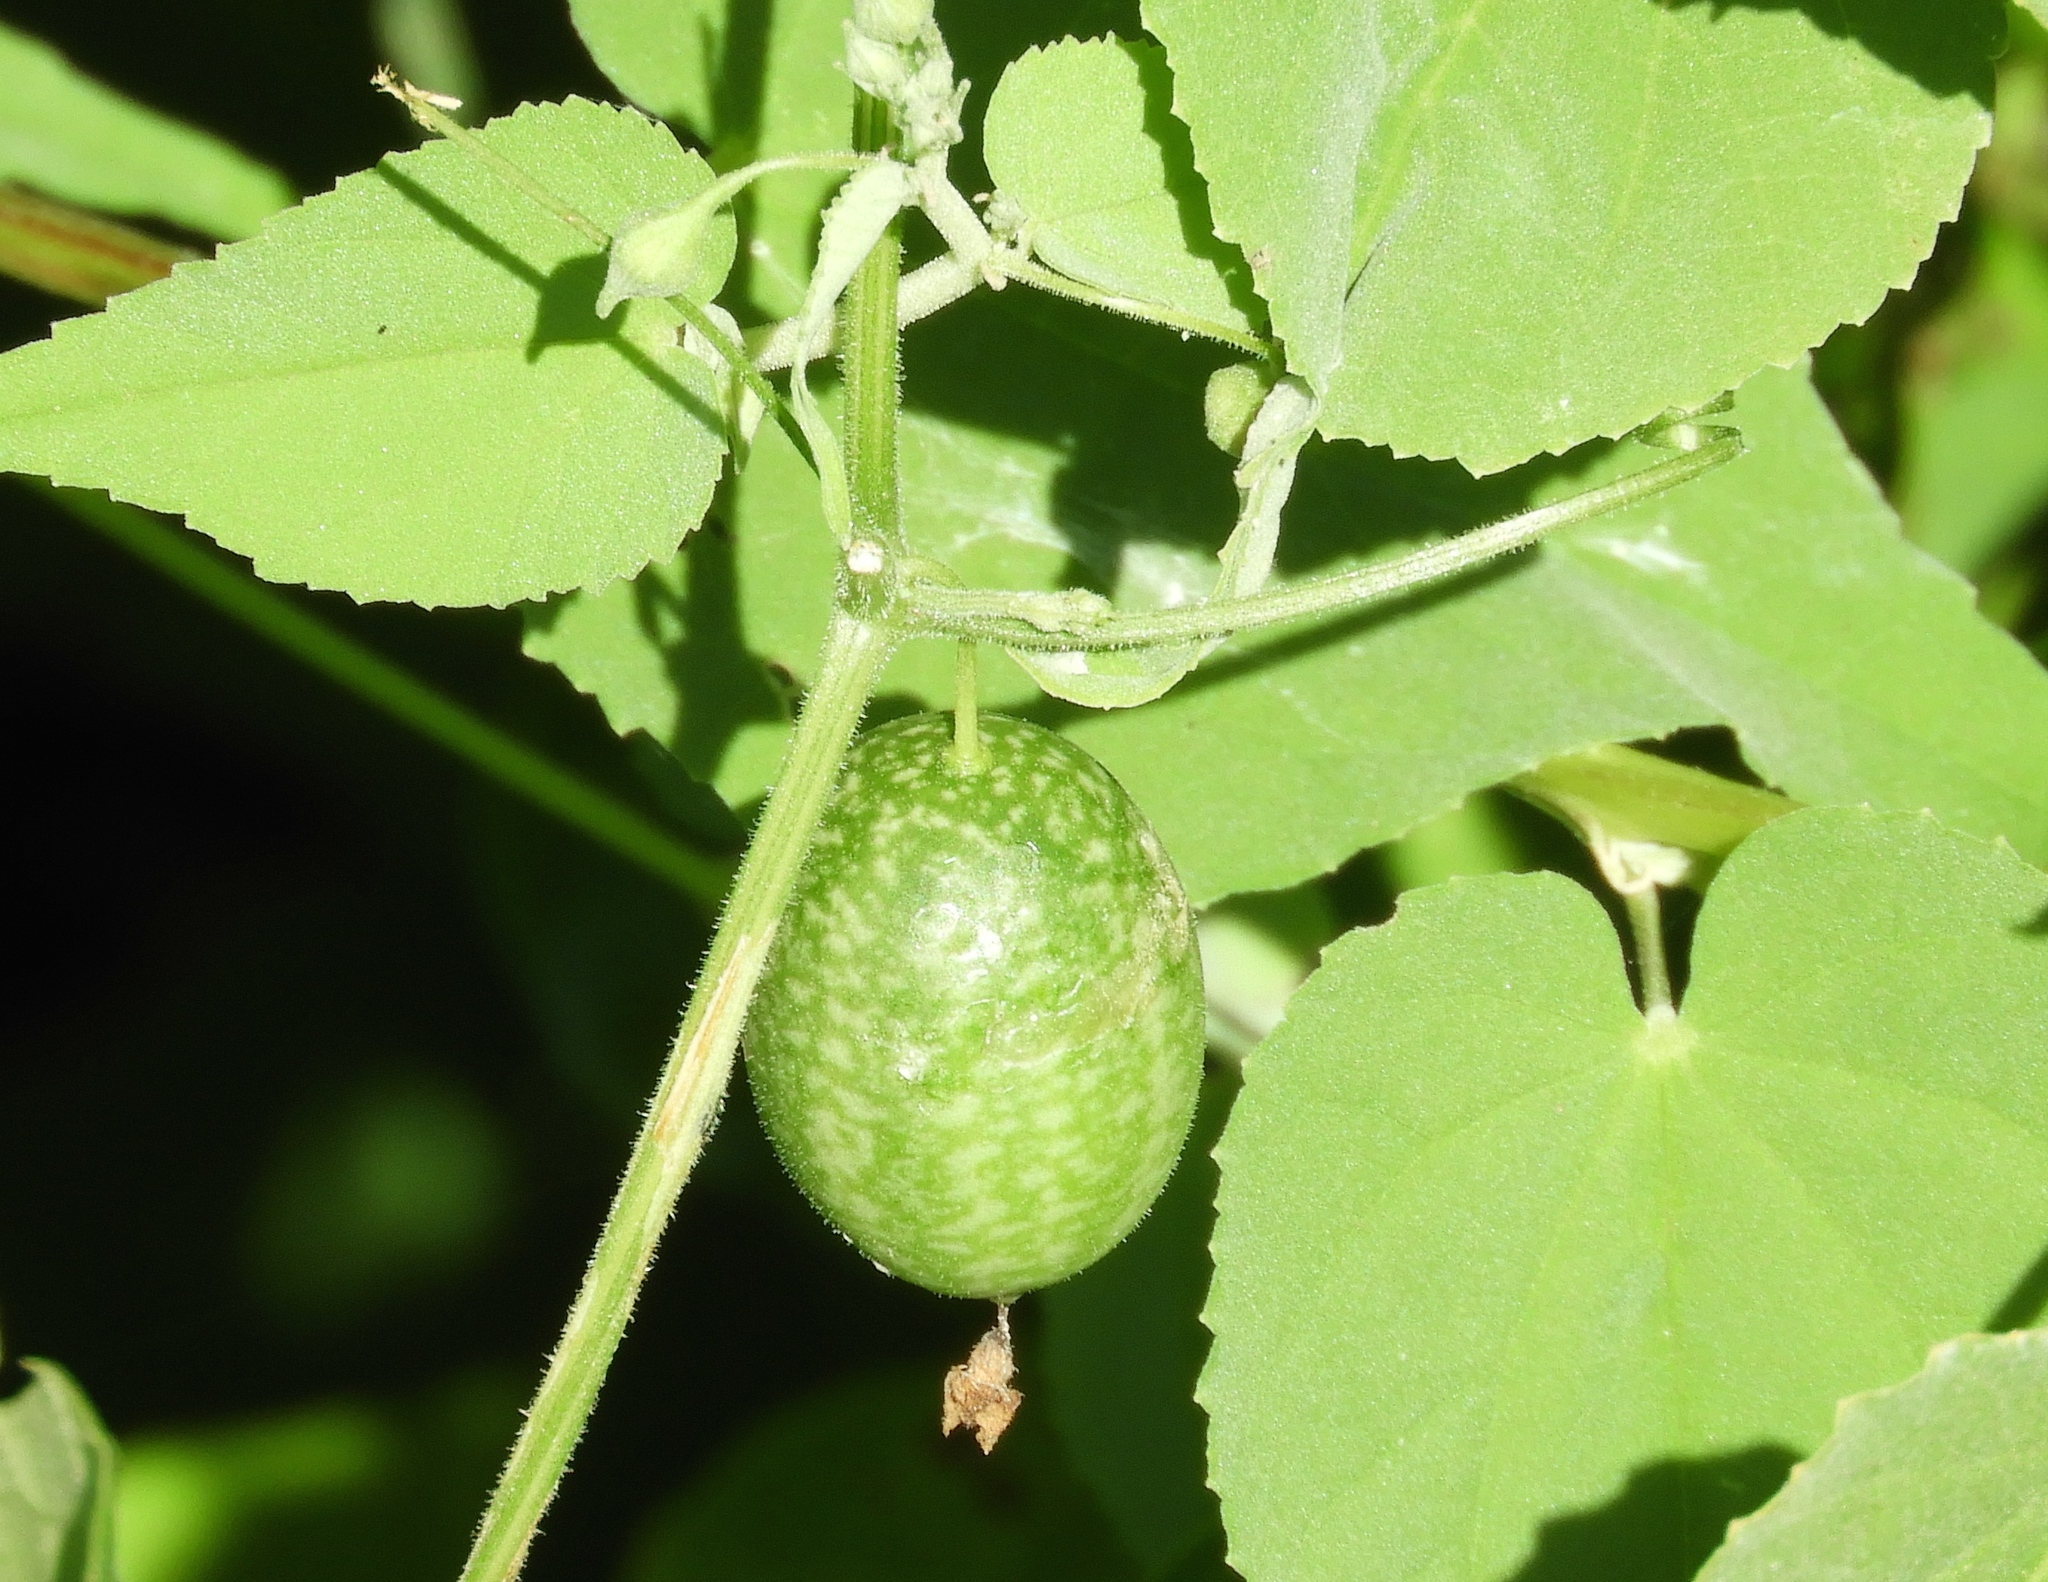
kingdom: Plantae
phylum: Tracheophyta
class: Magnoliopsida
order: Cucurbitales
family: Cucurbitaceae
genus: Melothria
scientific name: Melothria pendula
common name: Creeping-cucumber
